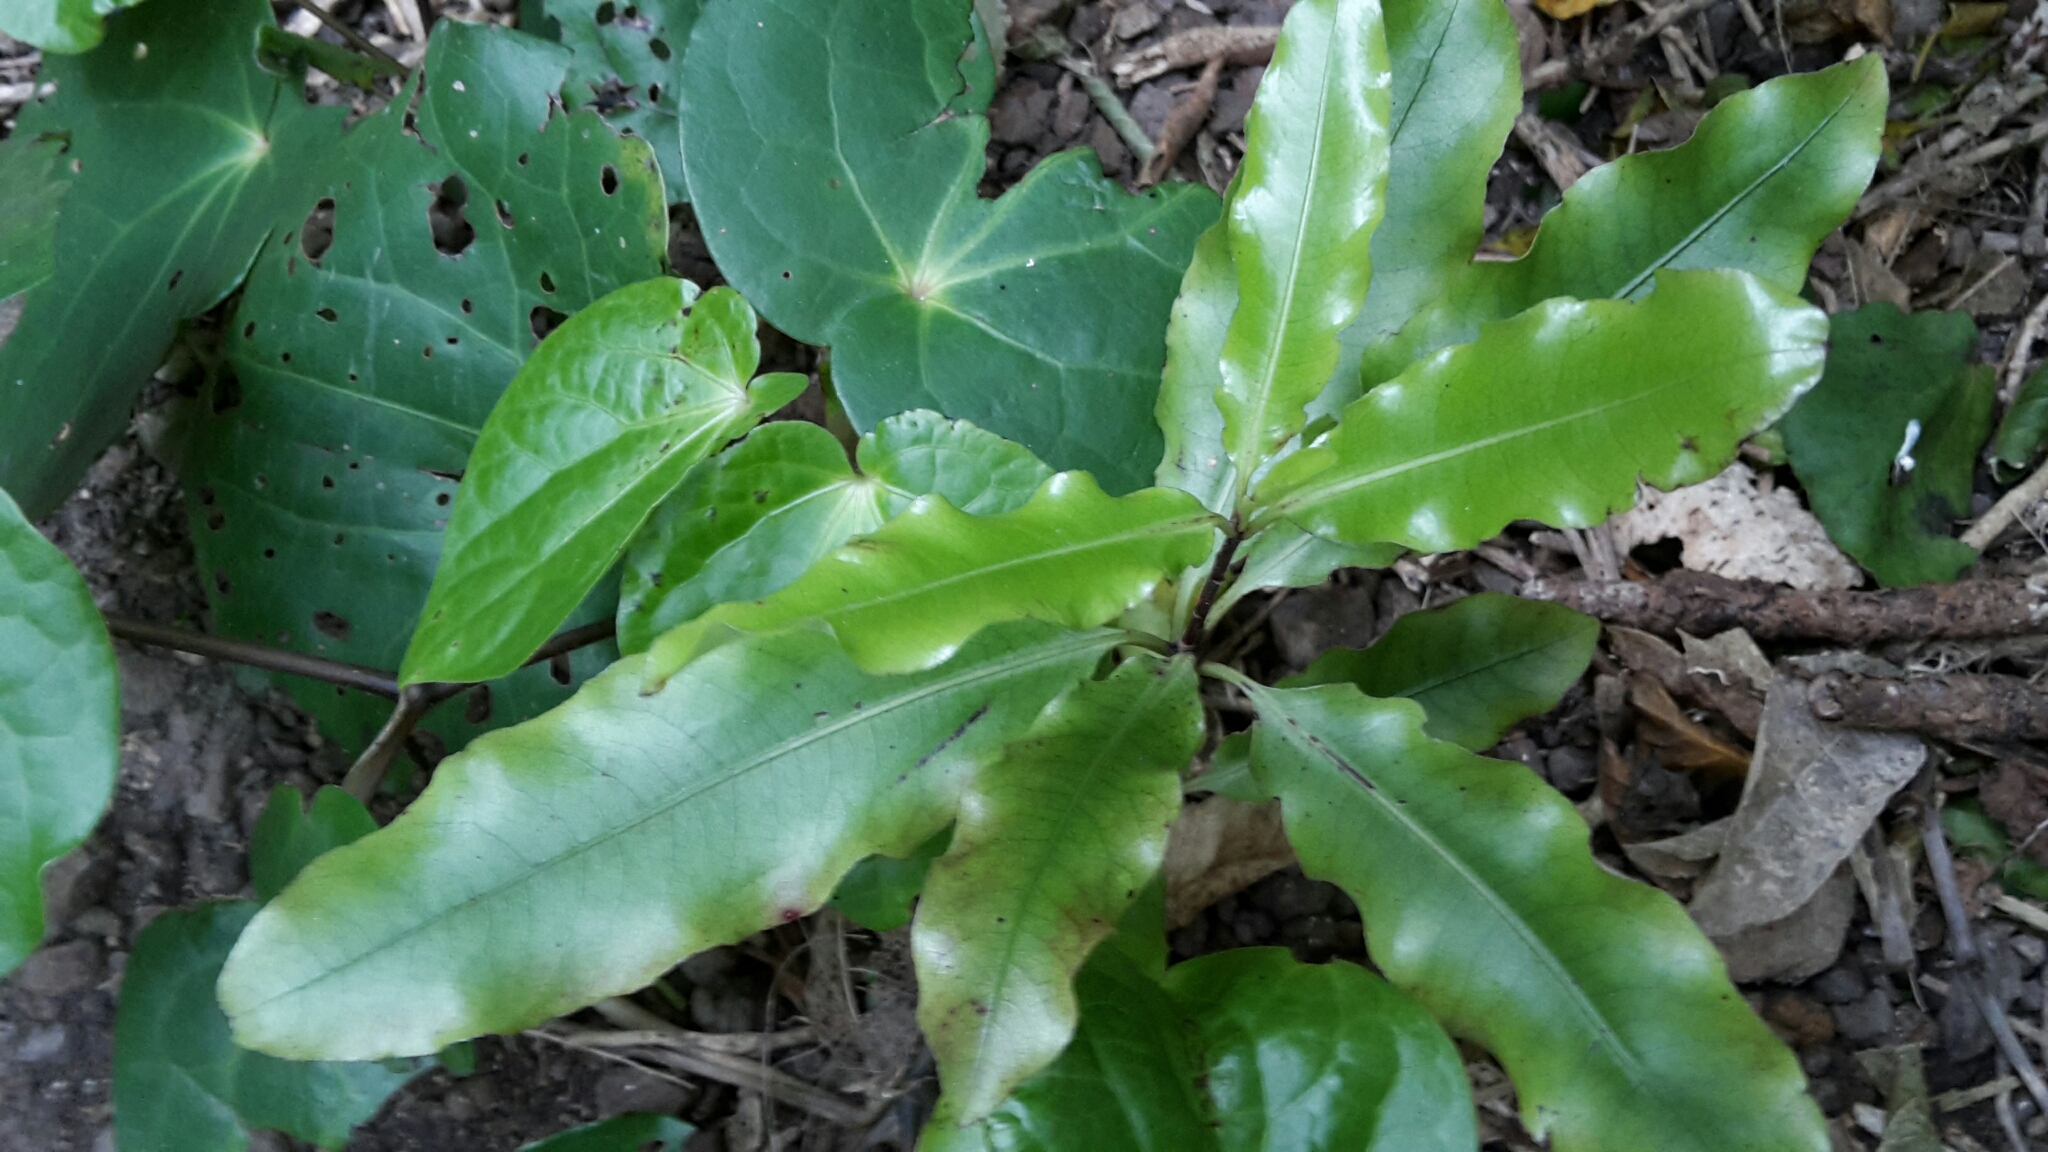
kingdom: Plantae
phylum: Tracheophyta
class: Magnoliopsida
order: Apiales
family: Pittosporaceae
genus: Pittosporum
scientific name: Pittosporum eugenioides
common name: Lemonwood
